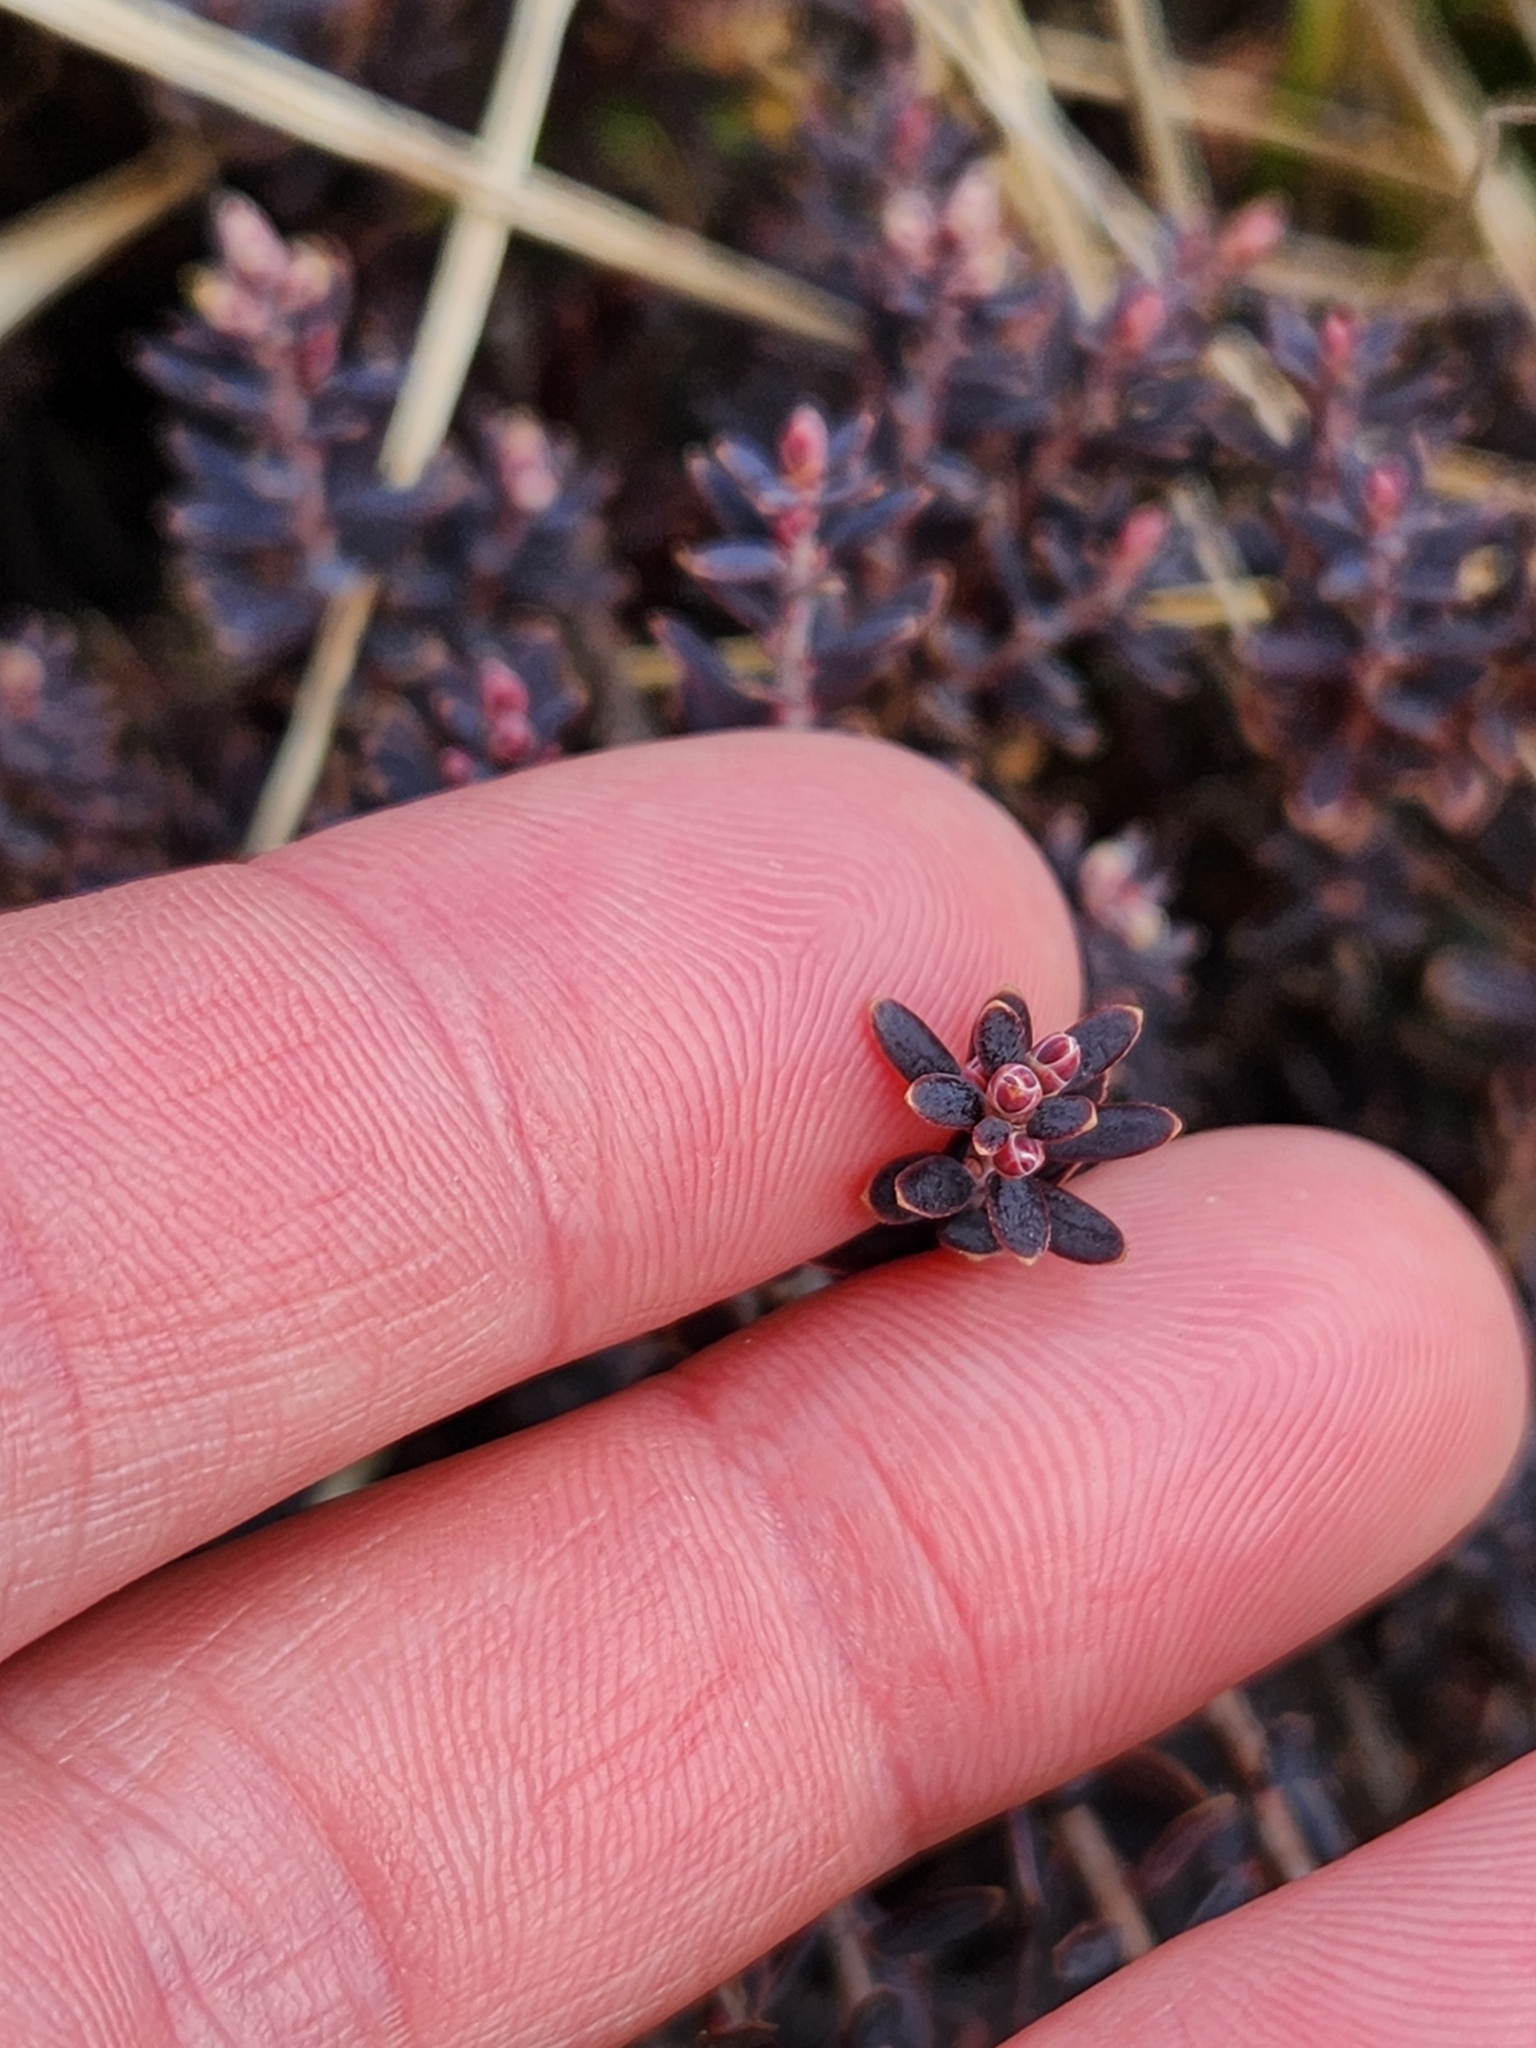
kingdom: Plantae
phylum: Tracheophyta
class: Magnoliopsida
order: Ericales
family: Ericaceae
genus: Acrothamnus
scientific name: Acrothamnus colensoi
